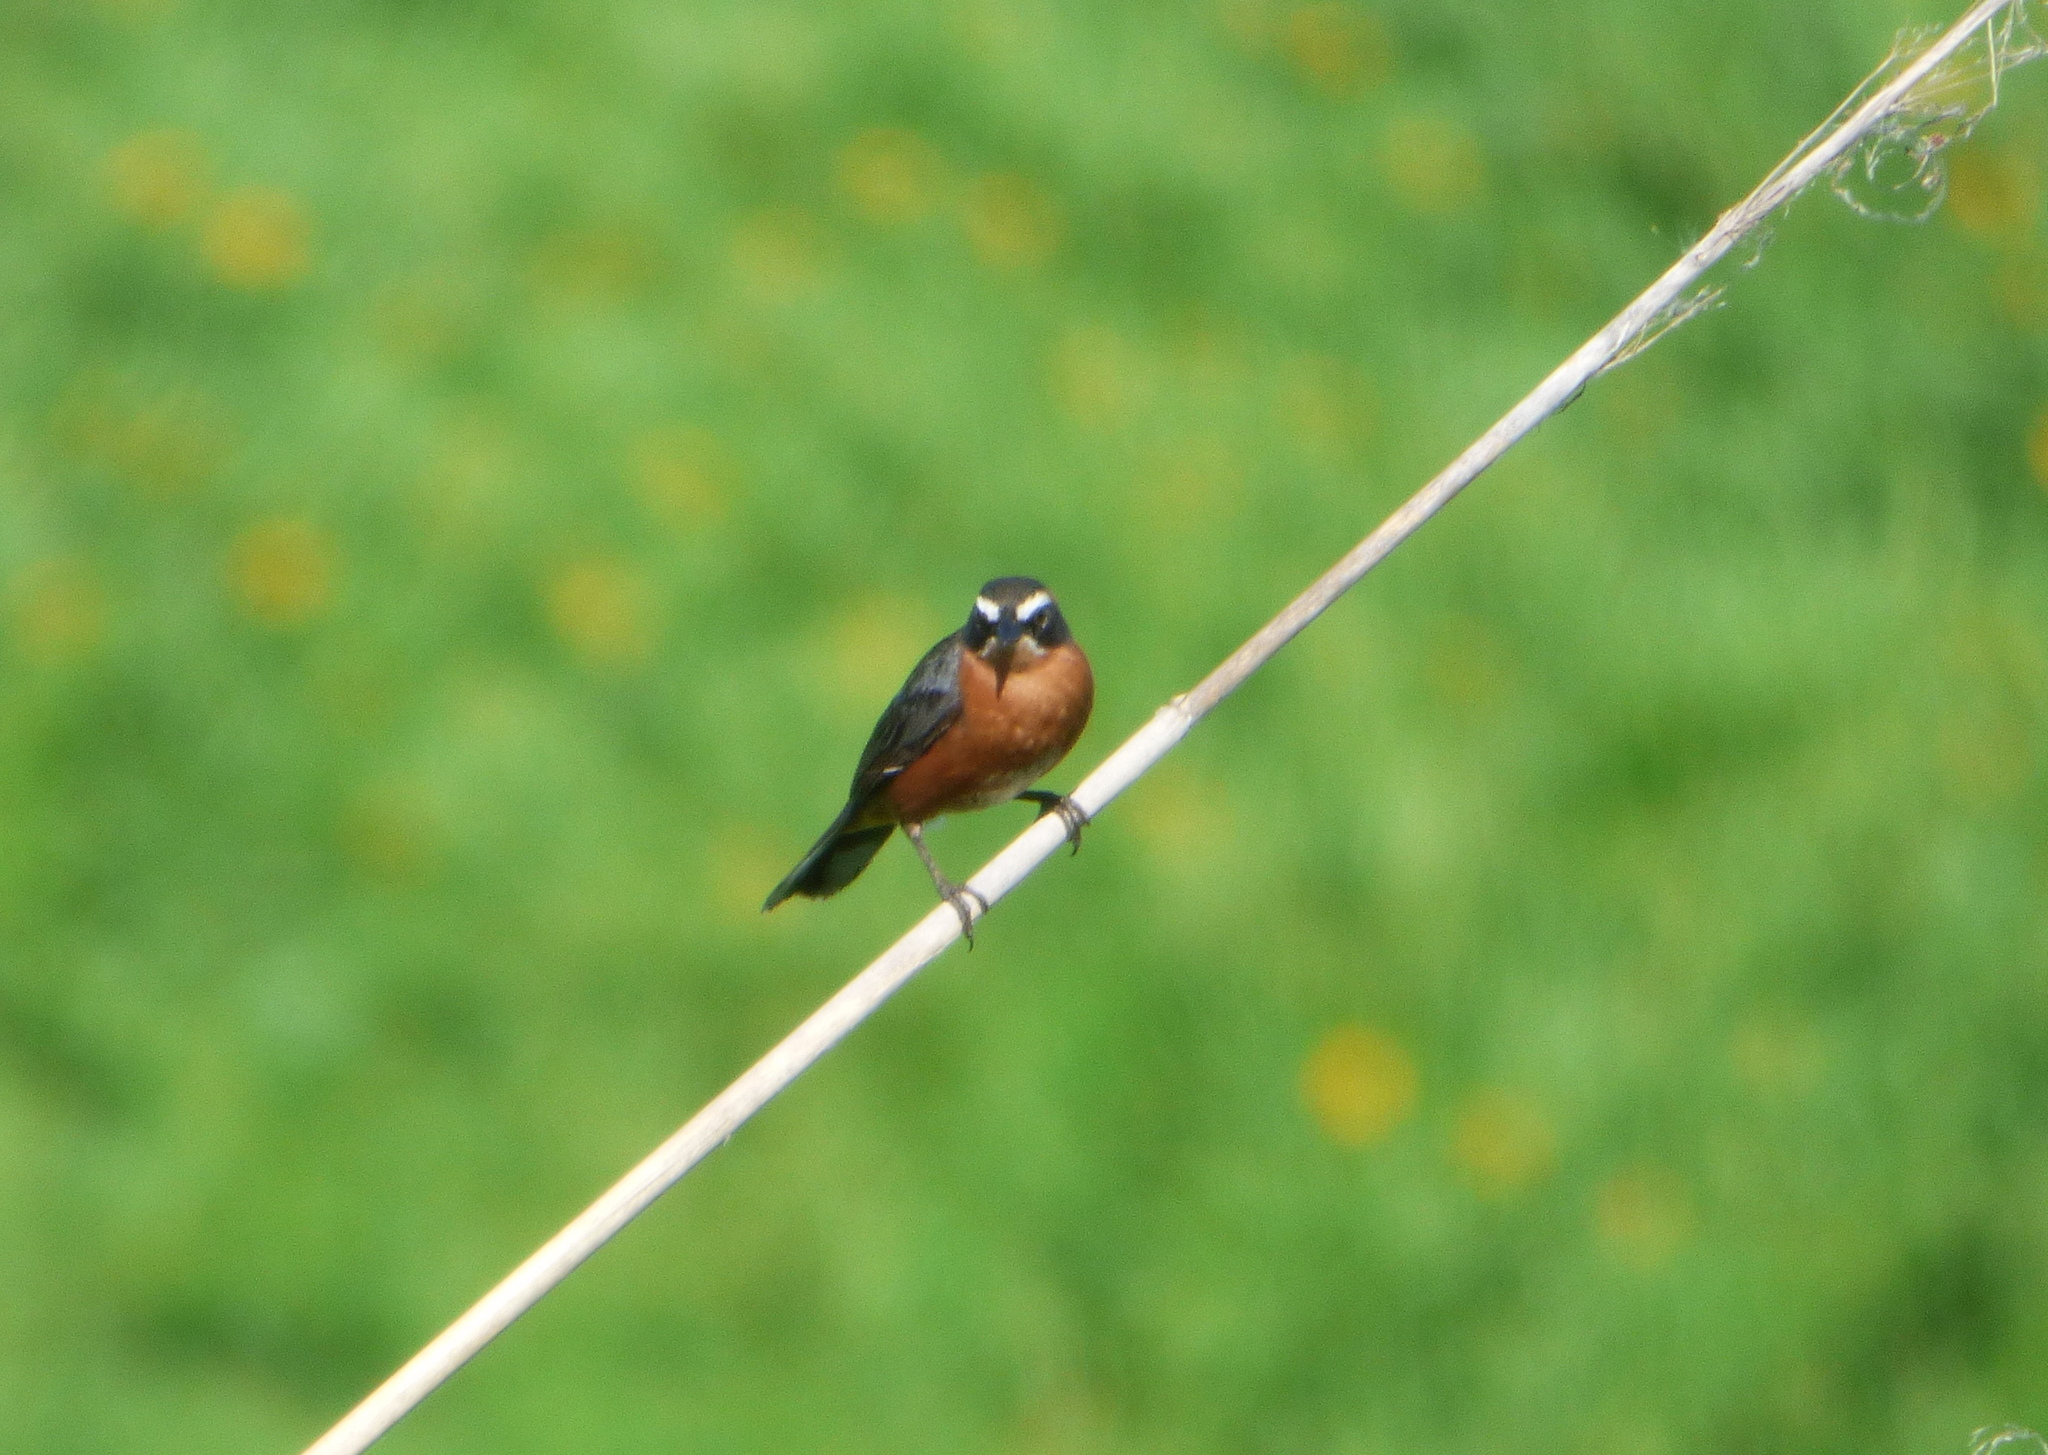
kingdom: Animalia
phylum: Chordata
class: Aves
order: Passeriformes
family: Thraupidae
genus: Poospiza
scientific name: Poospiza nigrorufa
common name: Black-and-rufous warbling finch
